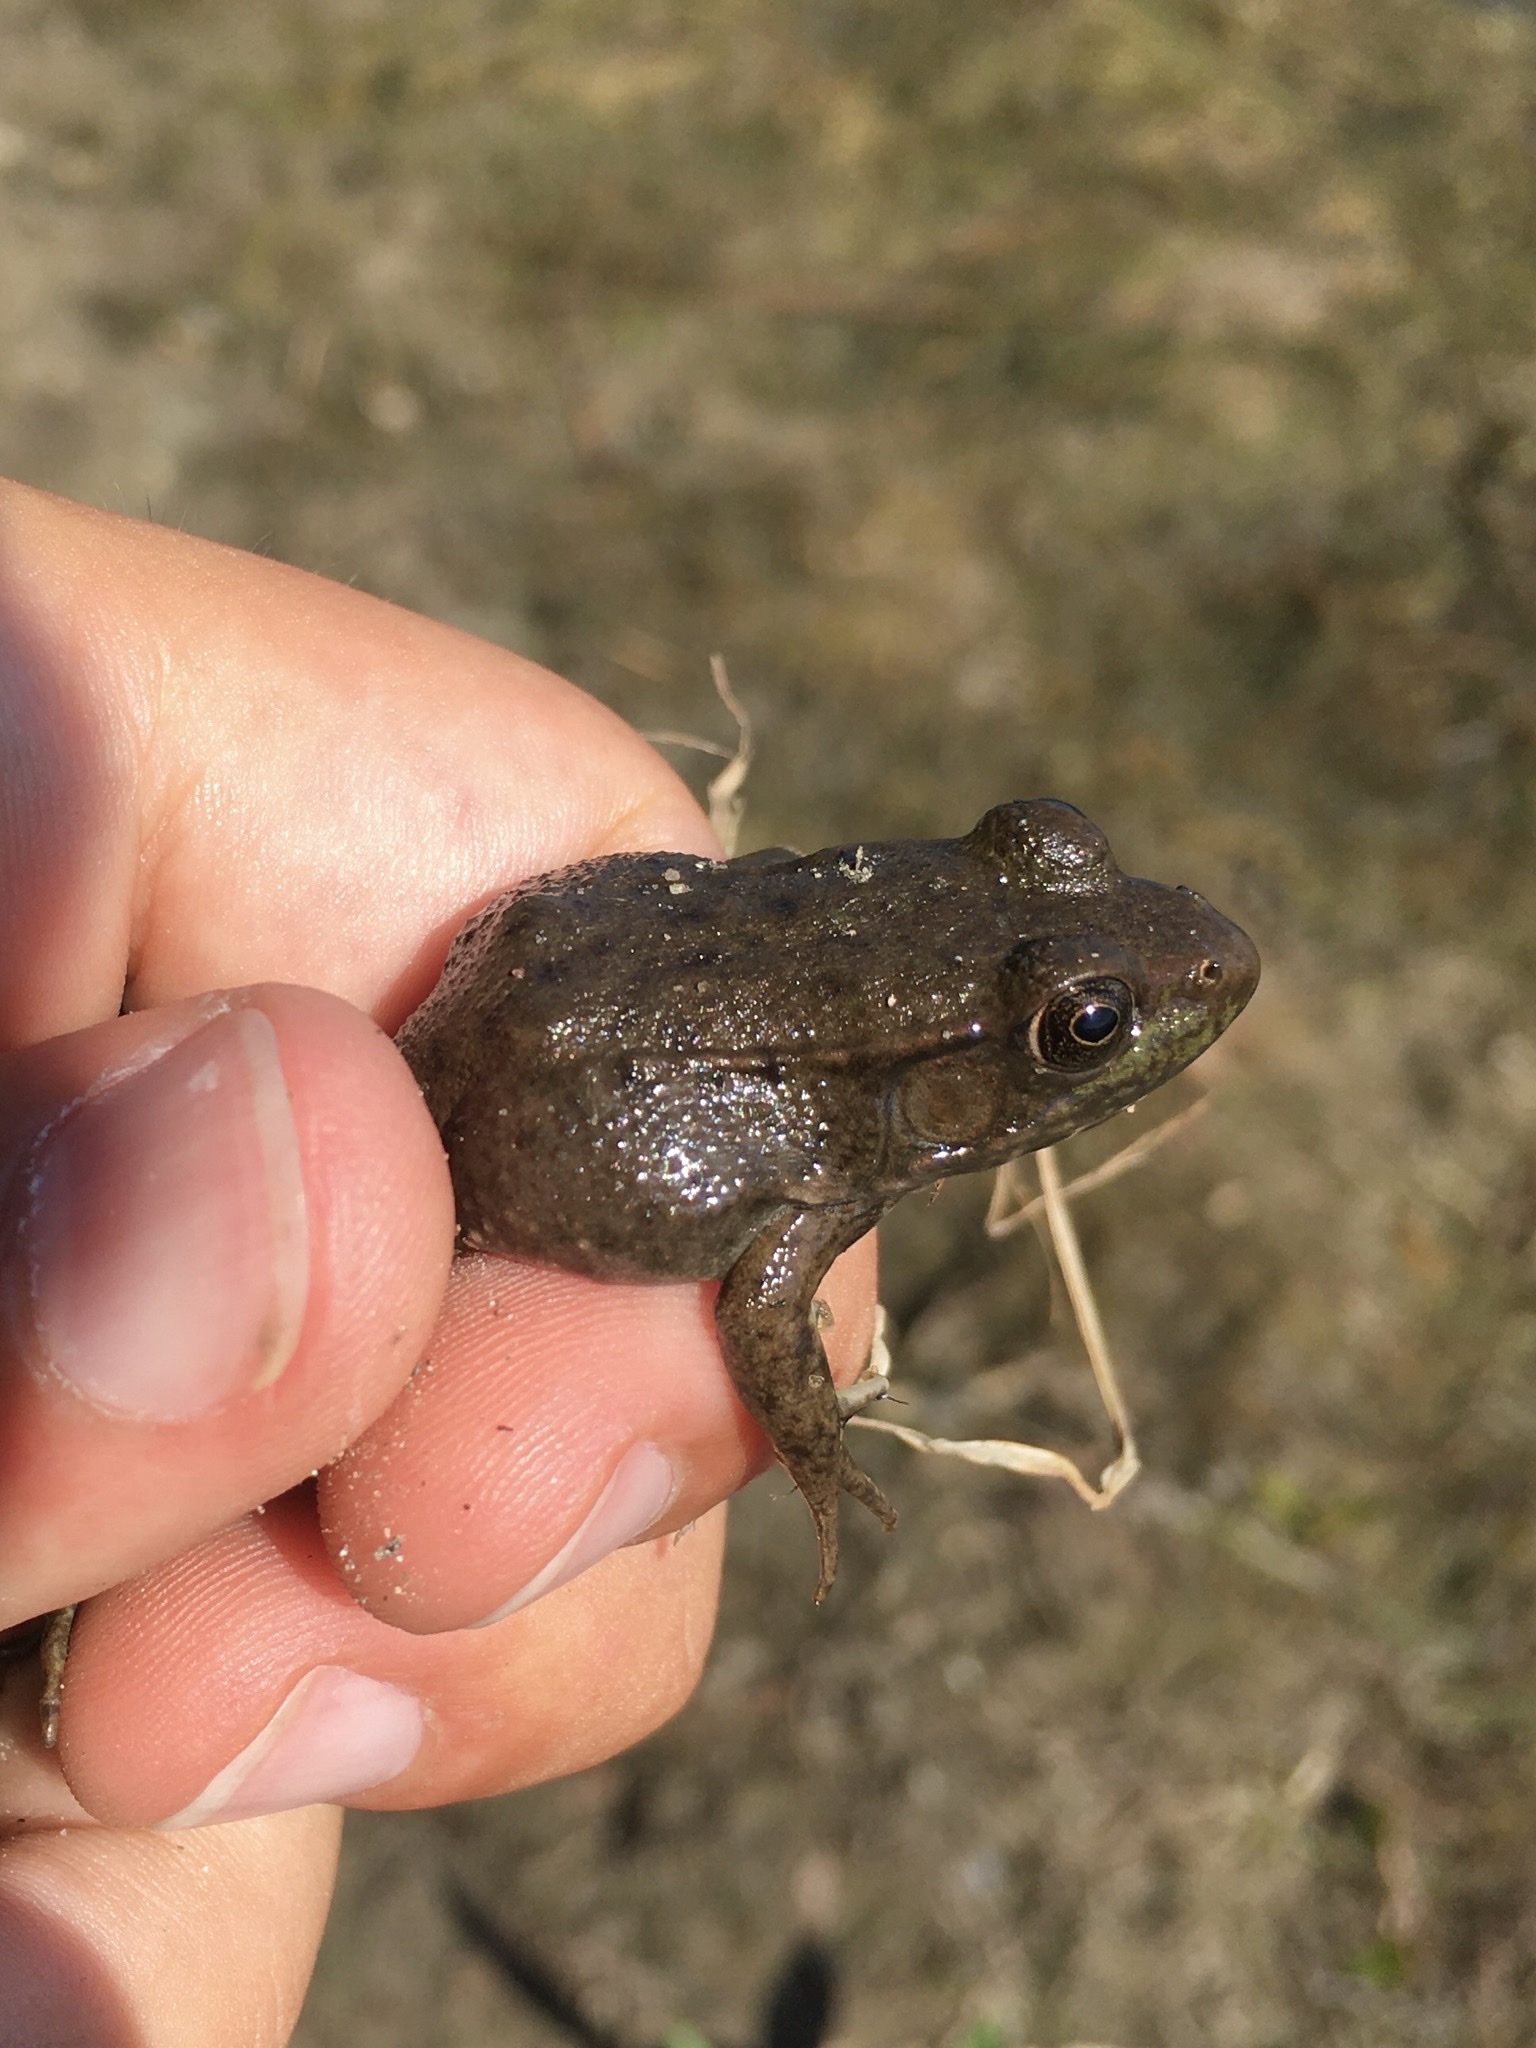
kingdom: Animalia
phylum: Chordata
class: Amphibia
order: Anura
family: Ranidae
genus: Lithobates
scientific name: Lithobates clamitans
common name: Green frog
